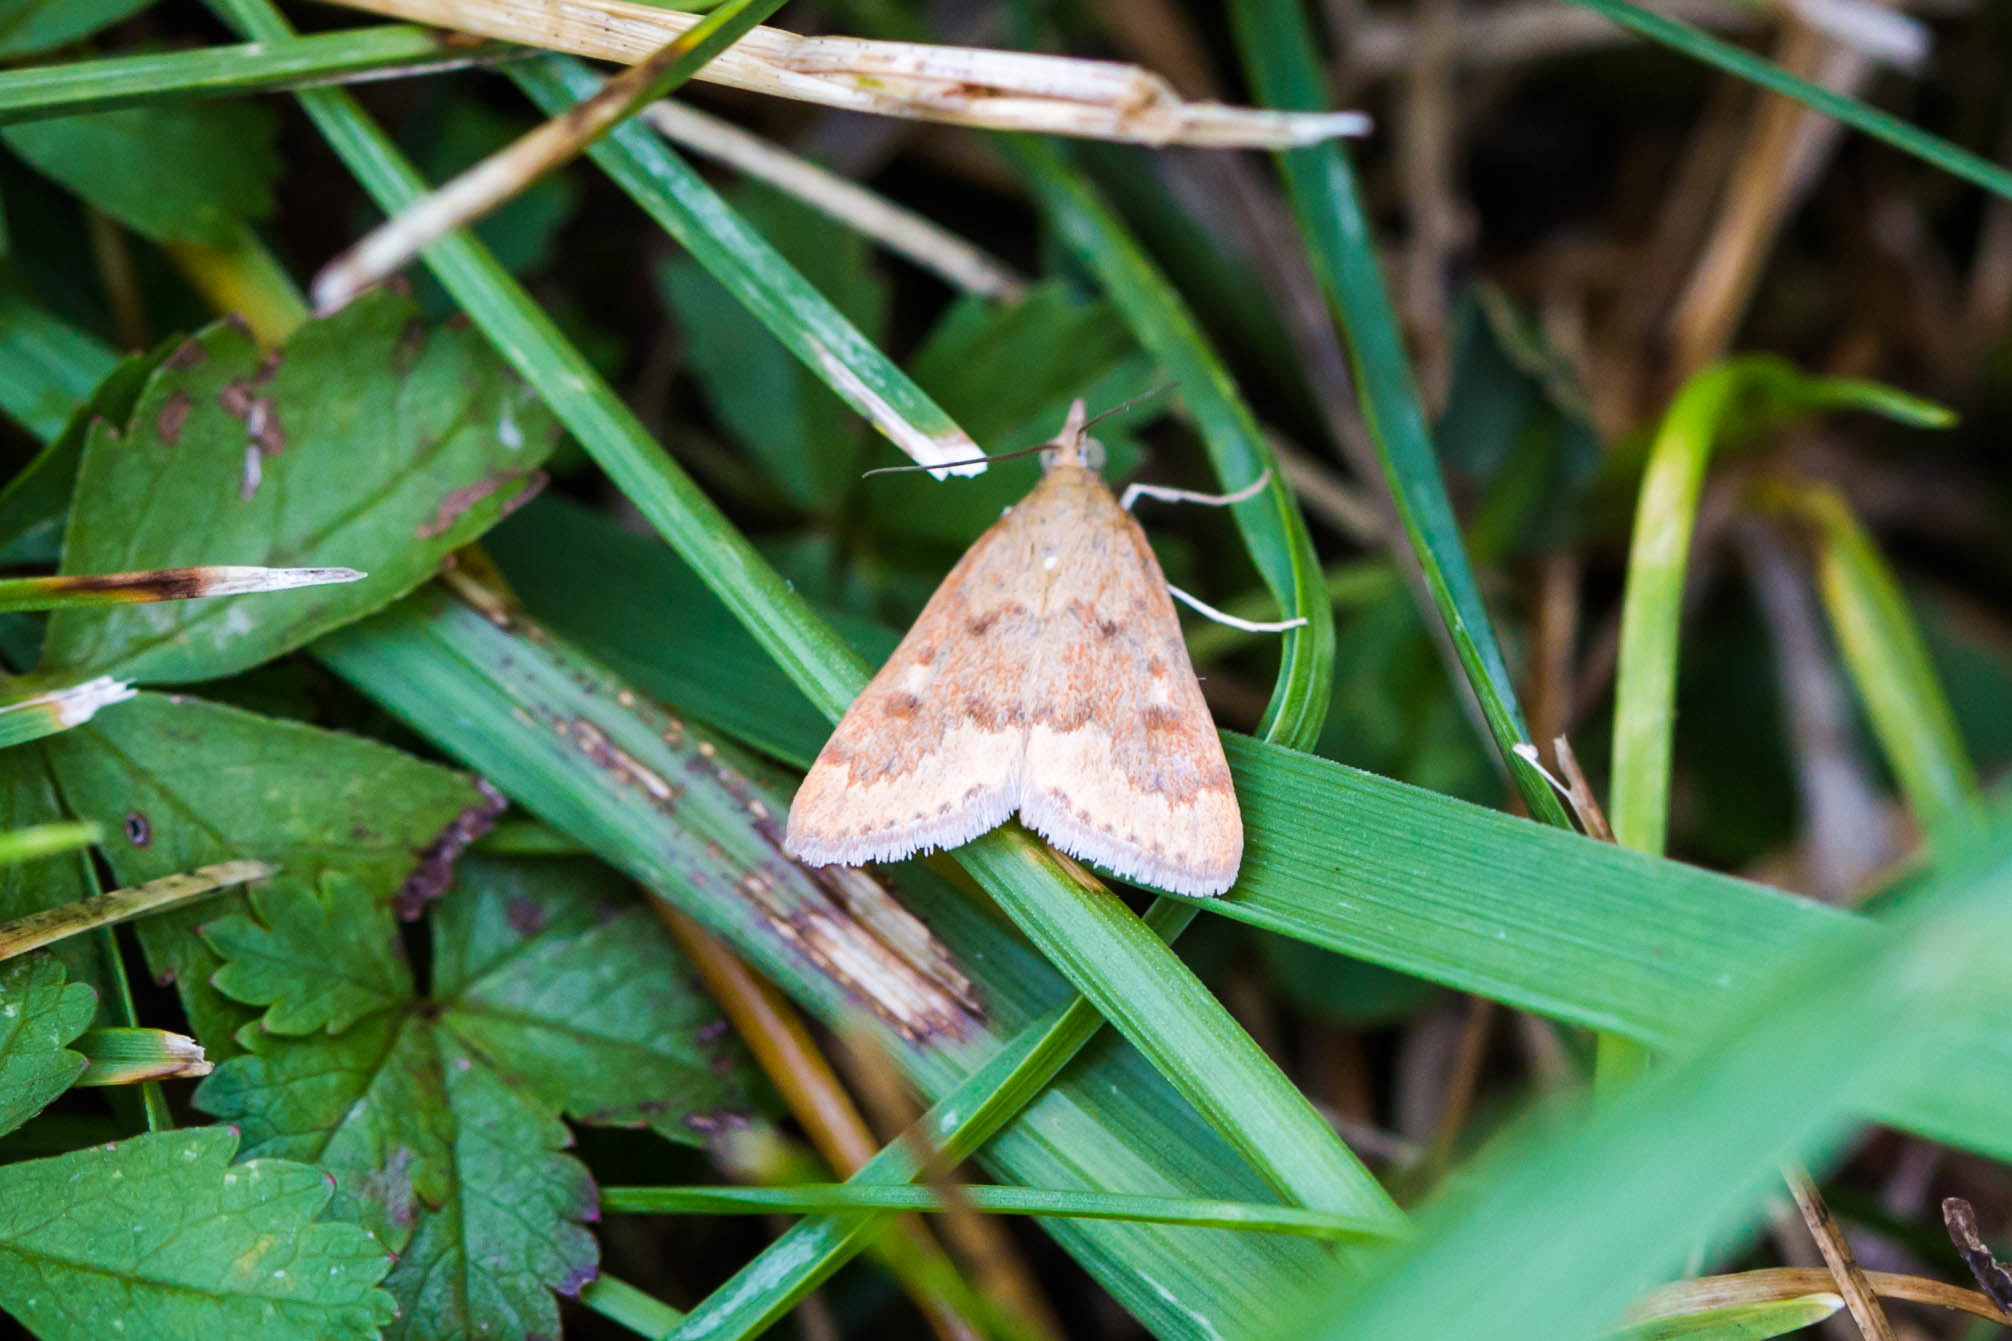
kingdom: Animalia
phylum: Arthropoda
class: Insecta
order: Lepidoptera
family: Crambidae
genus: Achyra
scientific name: Achyra rantalis
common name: Garden webworm
